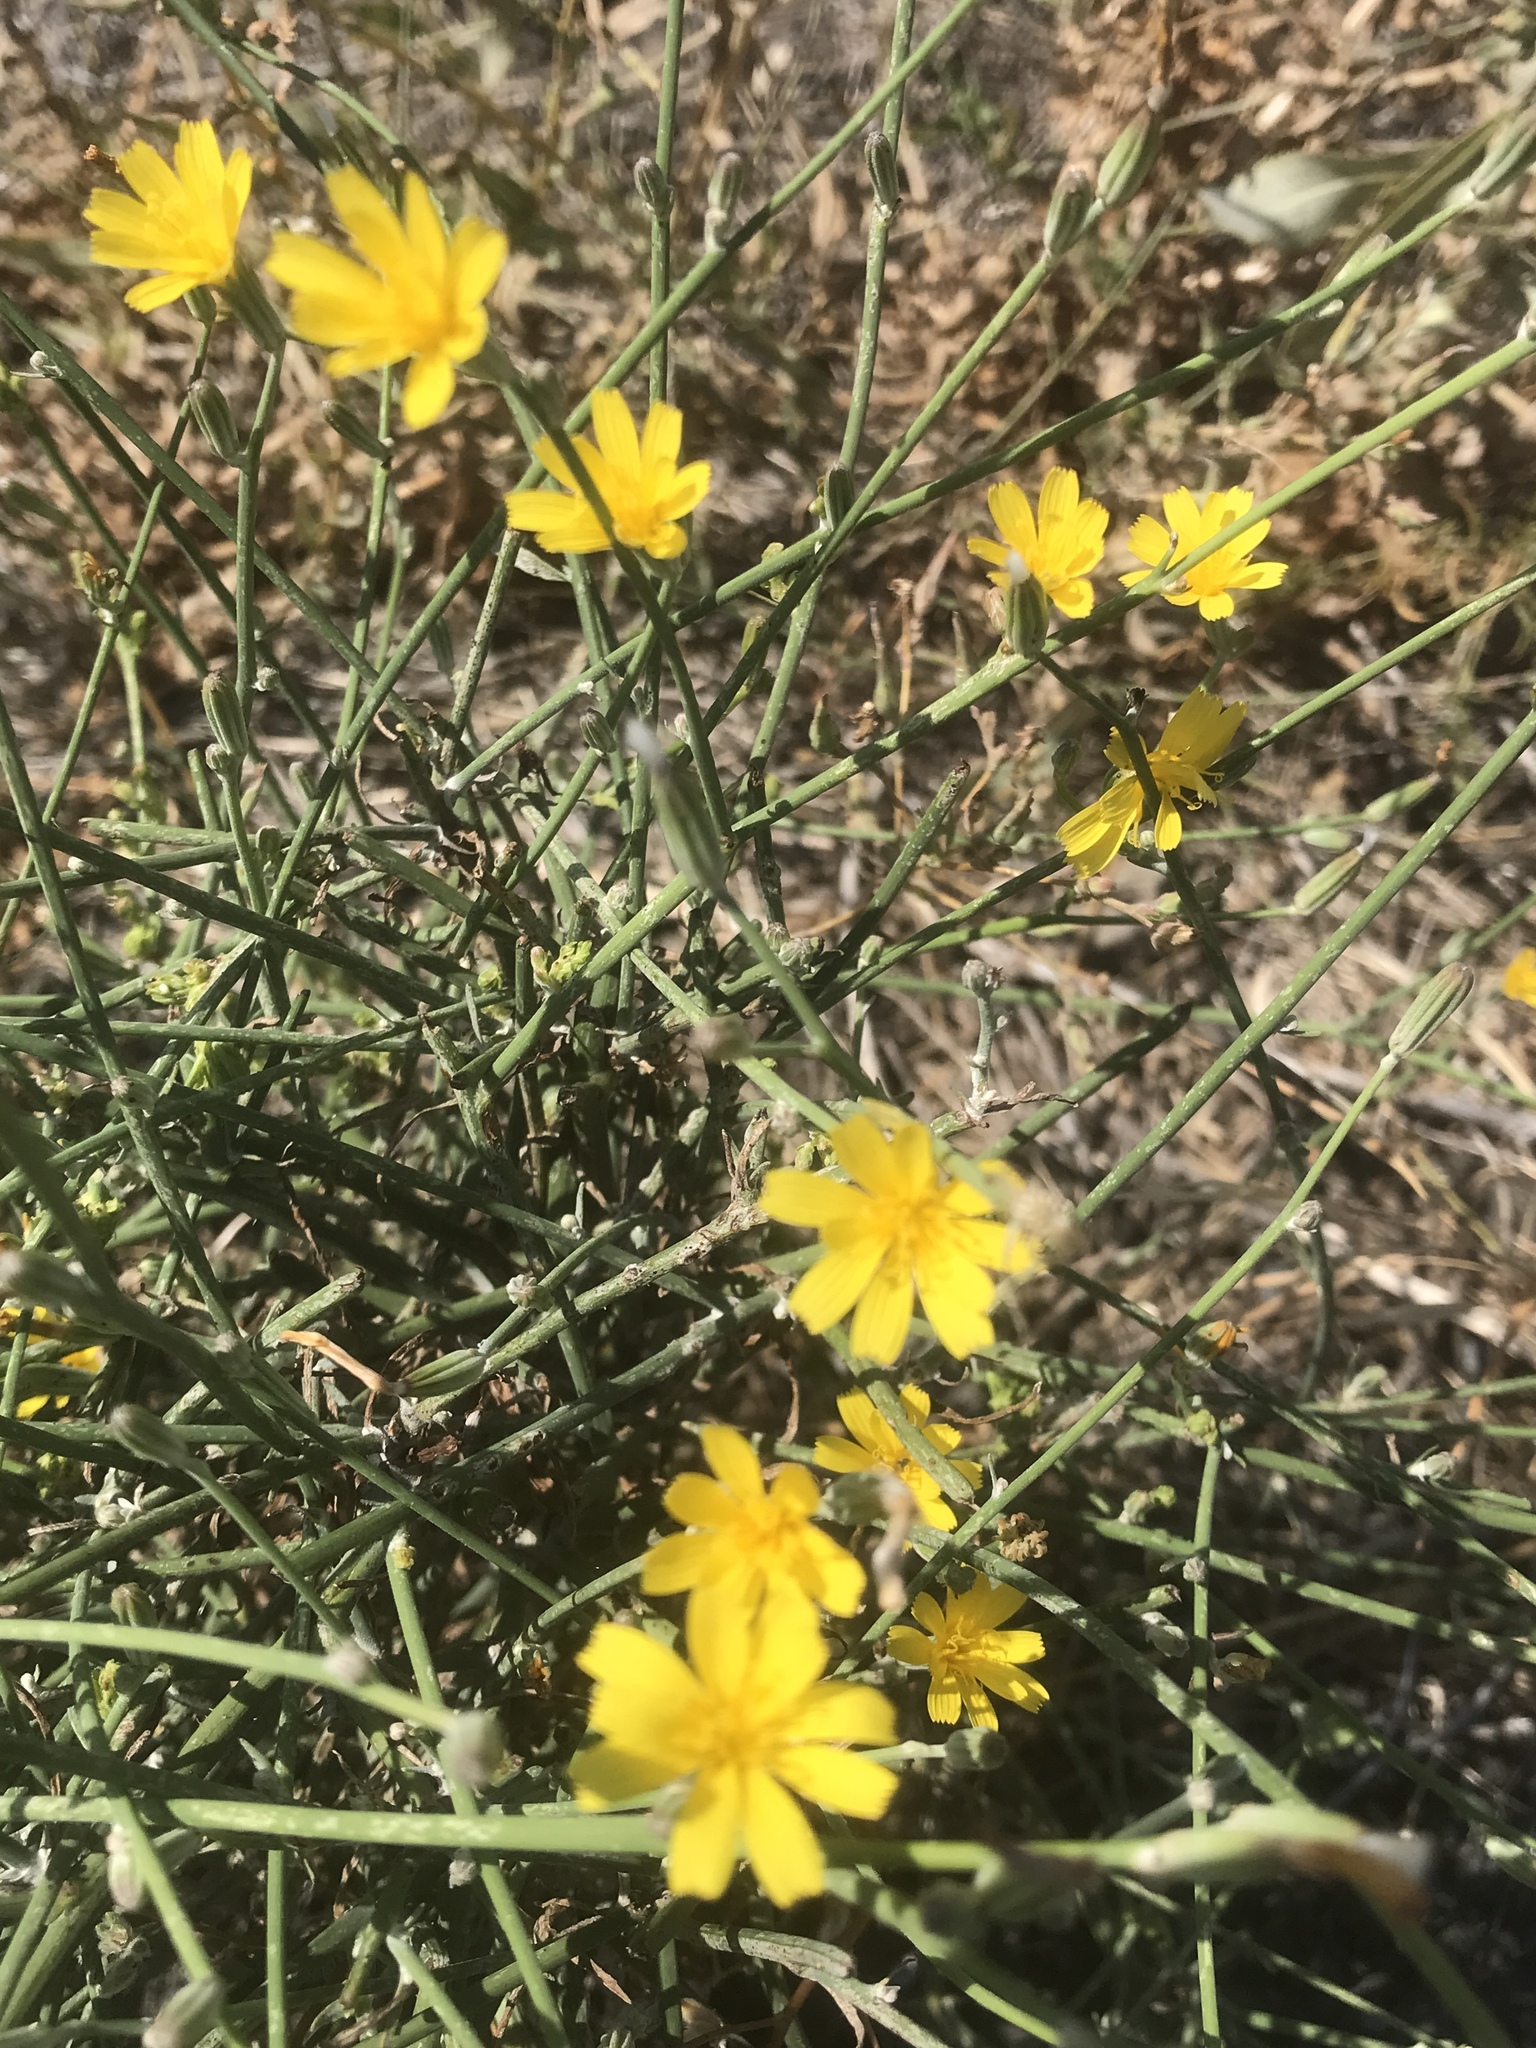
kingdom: Plantae
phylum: Tracheophyta
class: Magnoliopsida
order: Asterales
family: Asteraceae
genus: Chondrilla
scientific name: Chondrilla juncea
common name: Skeleton weed
